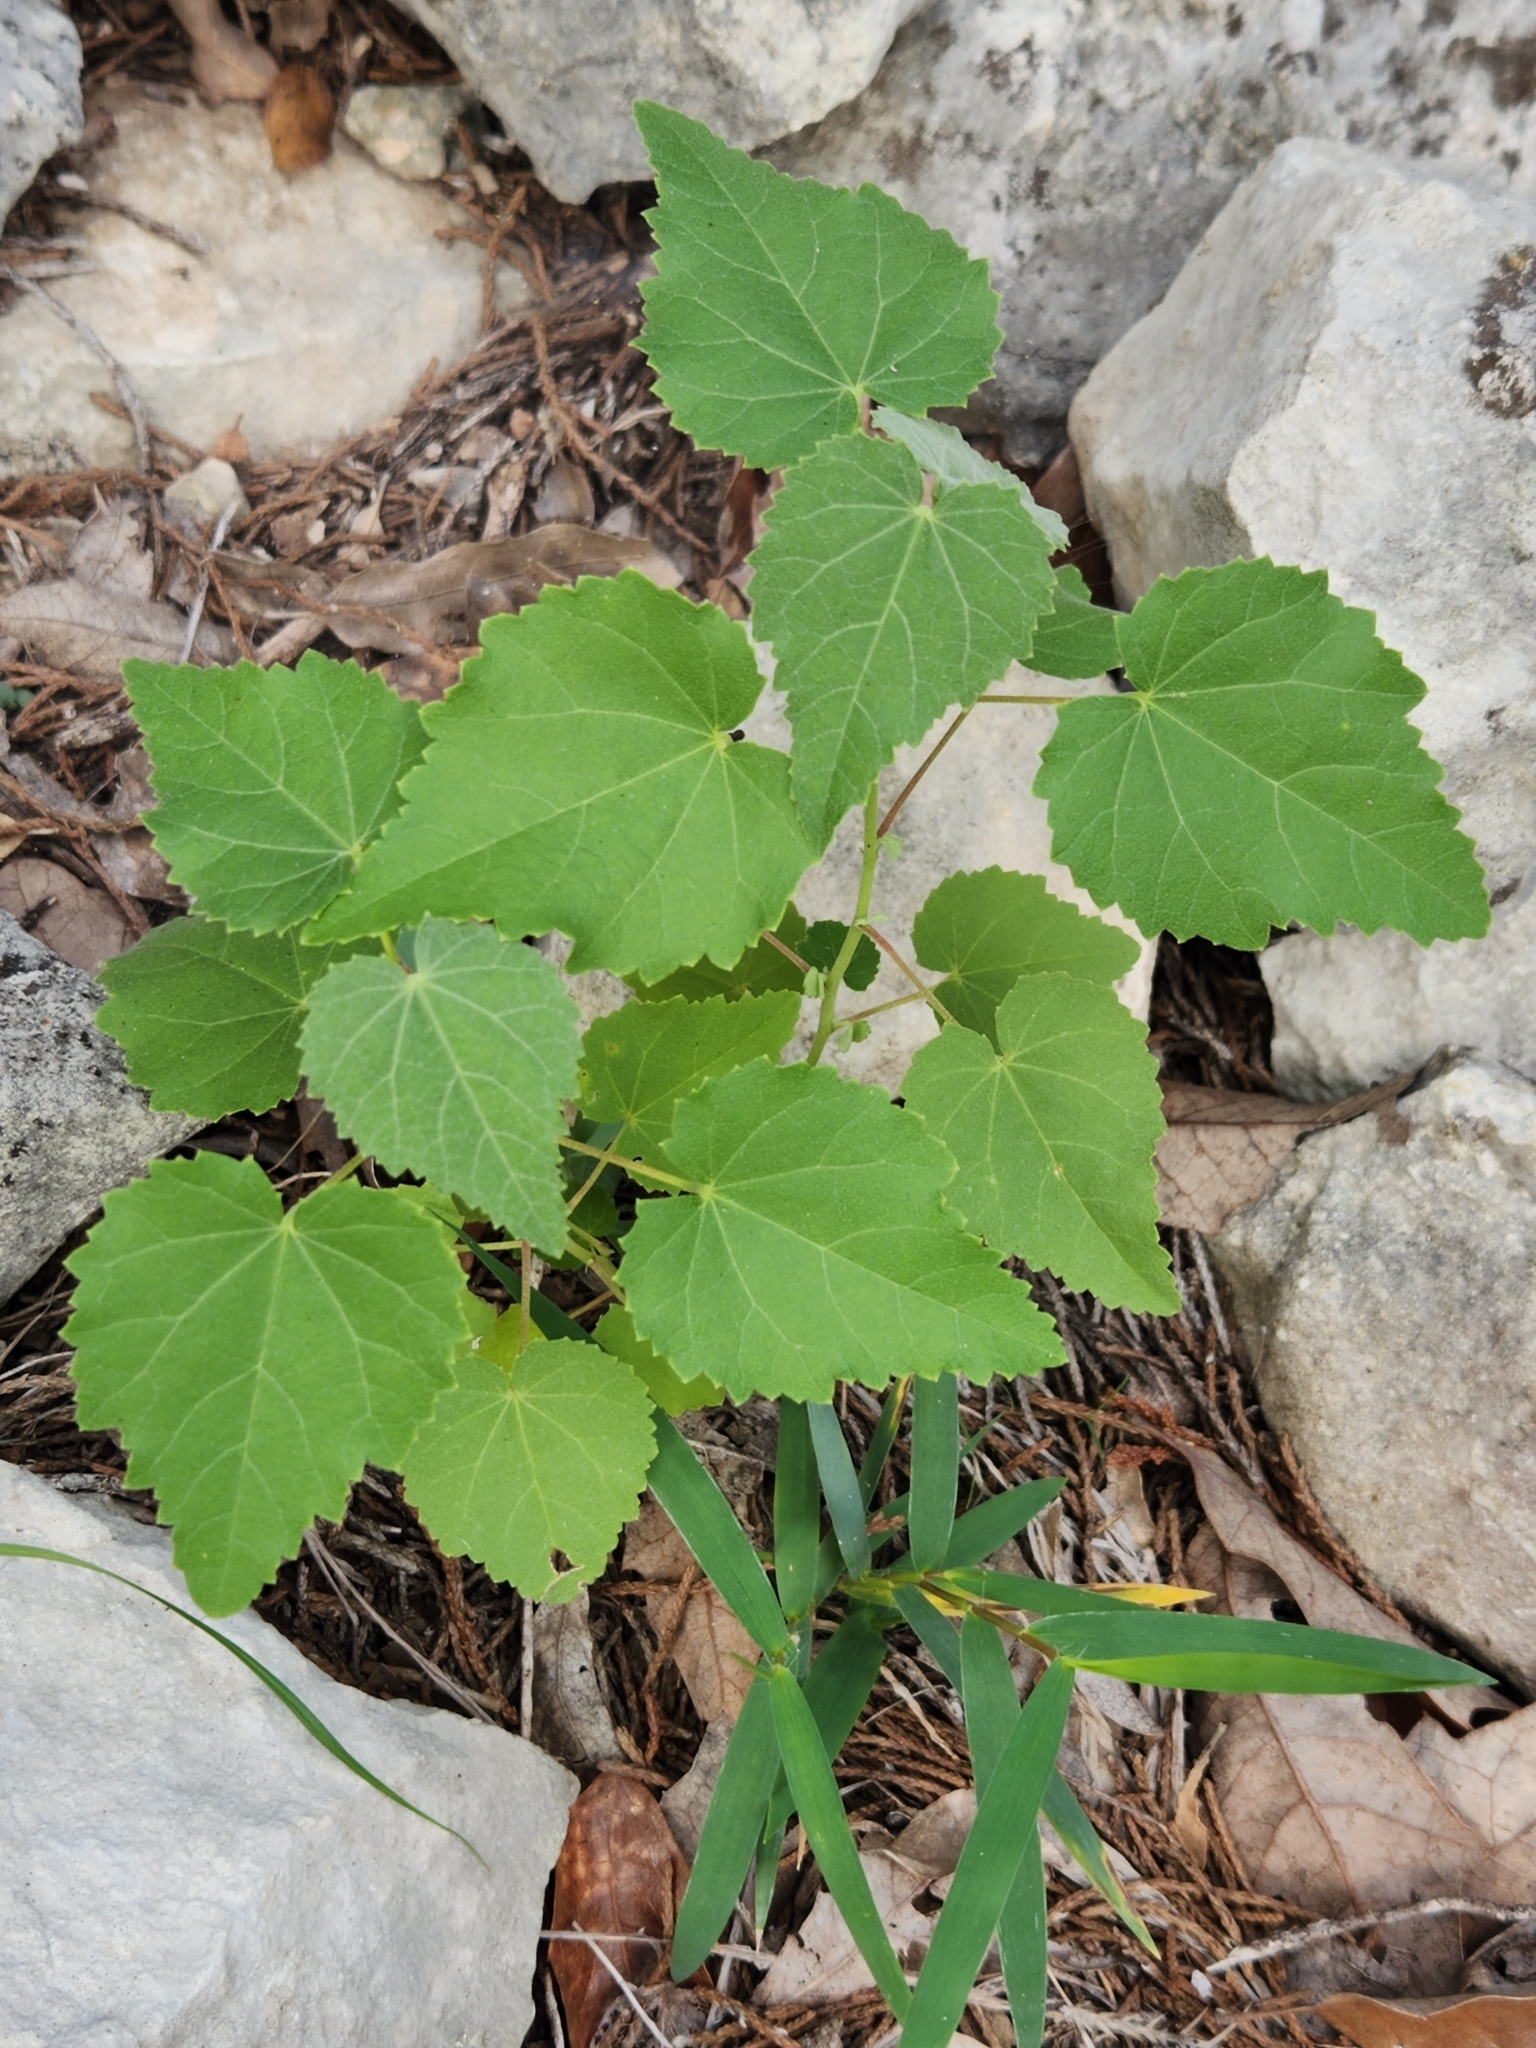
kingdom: Plantae
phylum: Tracheophyta
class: Magnoliopsida
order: Malvales
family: Malvaceae
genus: Abutilon
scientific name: Abutilon fruticosum
